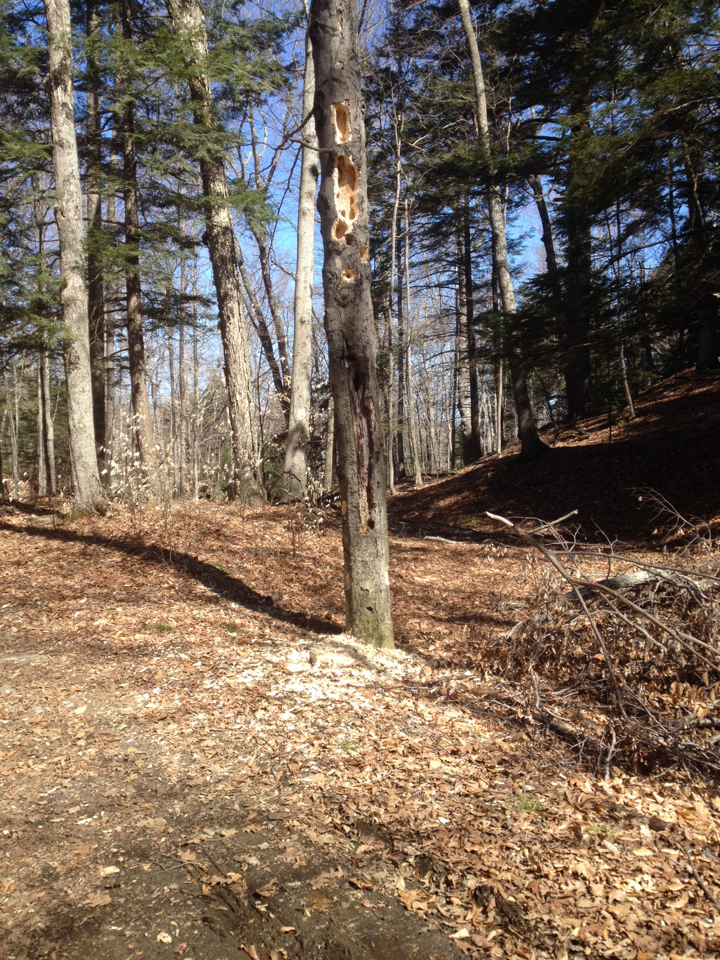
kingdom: Animalia
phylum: Chordata
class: Aves
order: Piciformes
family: Picidae
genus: Dryocopus
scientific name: Dryocopus pileatus
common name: Pileated woodpecker
